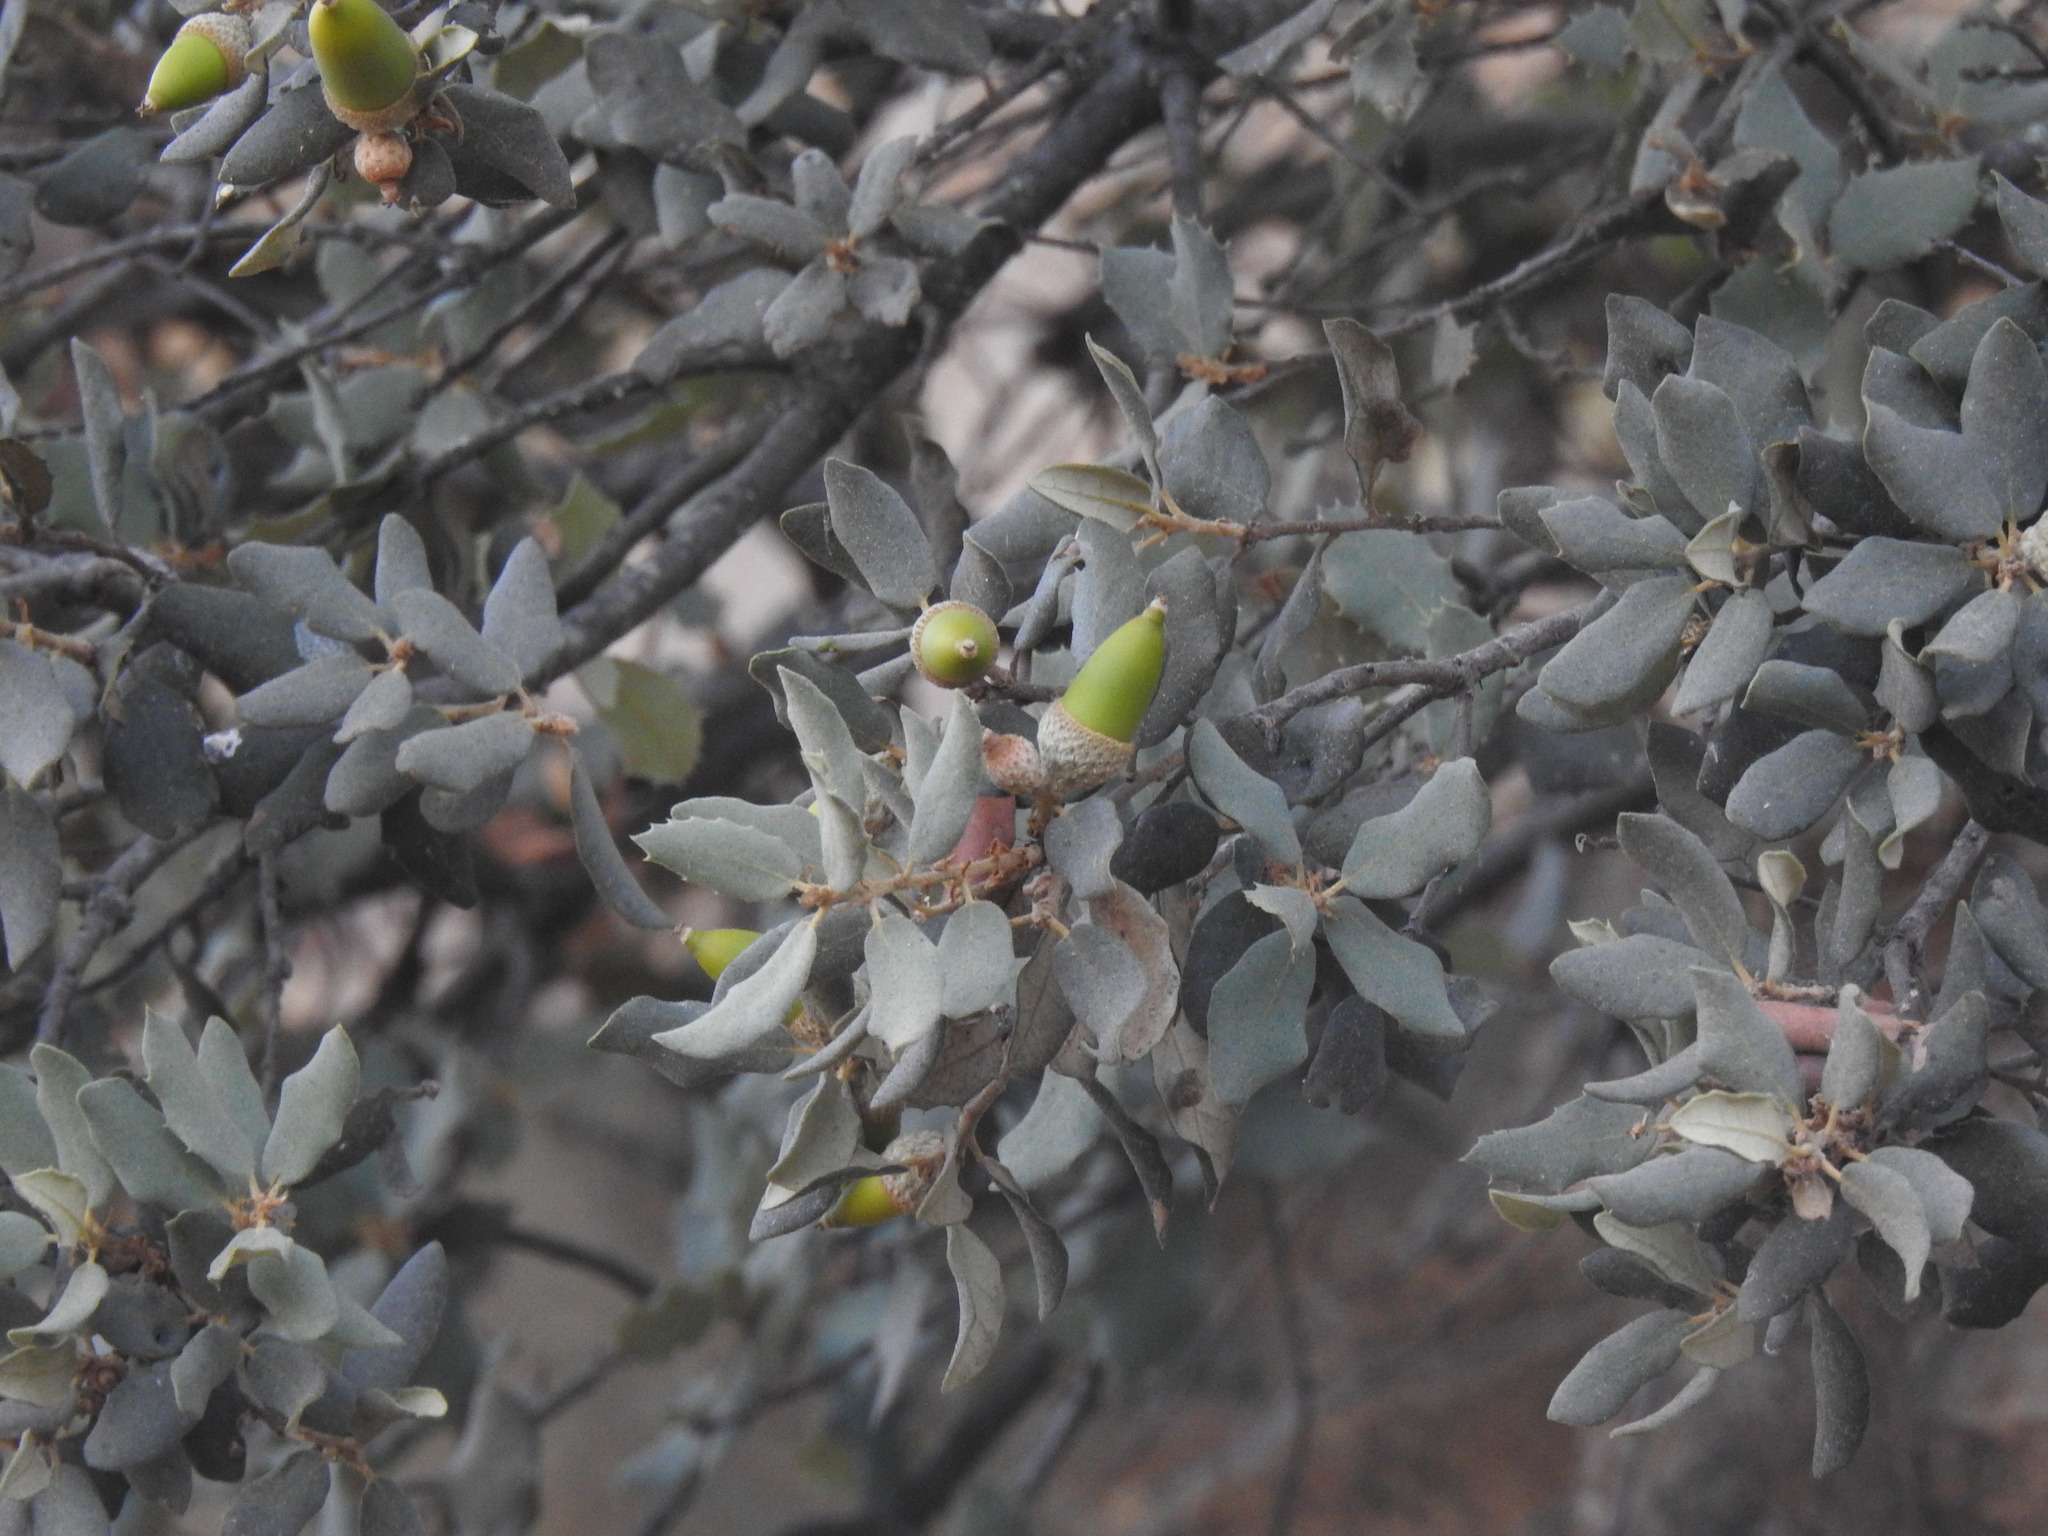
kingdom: Plantae
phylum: Tracheophyta
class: Magnoliopsida
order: Fagales
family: Fagaceae
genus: Quercus
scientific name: Quercus rotundifolia
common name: Holm oak
